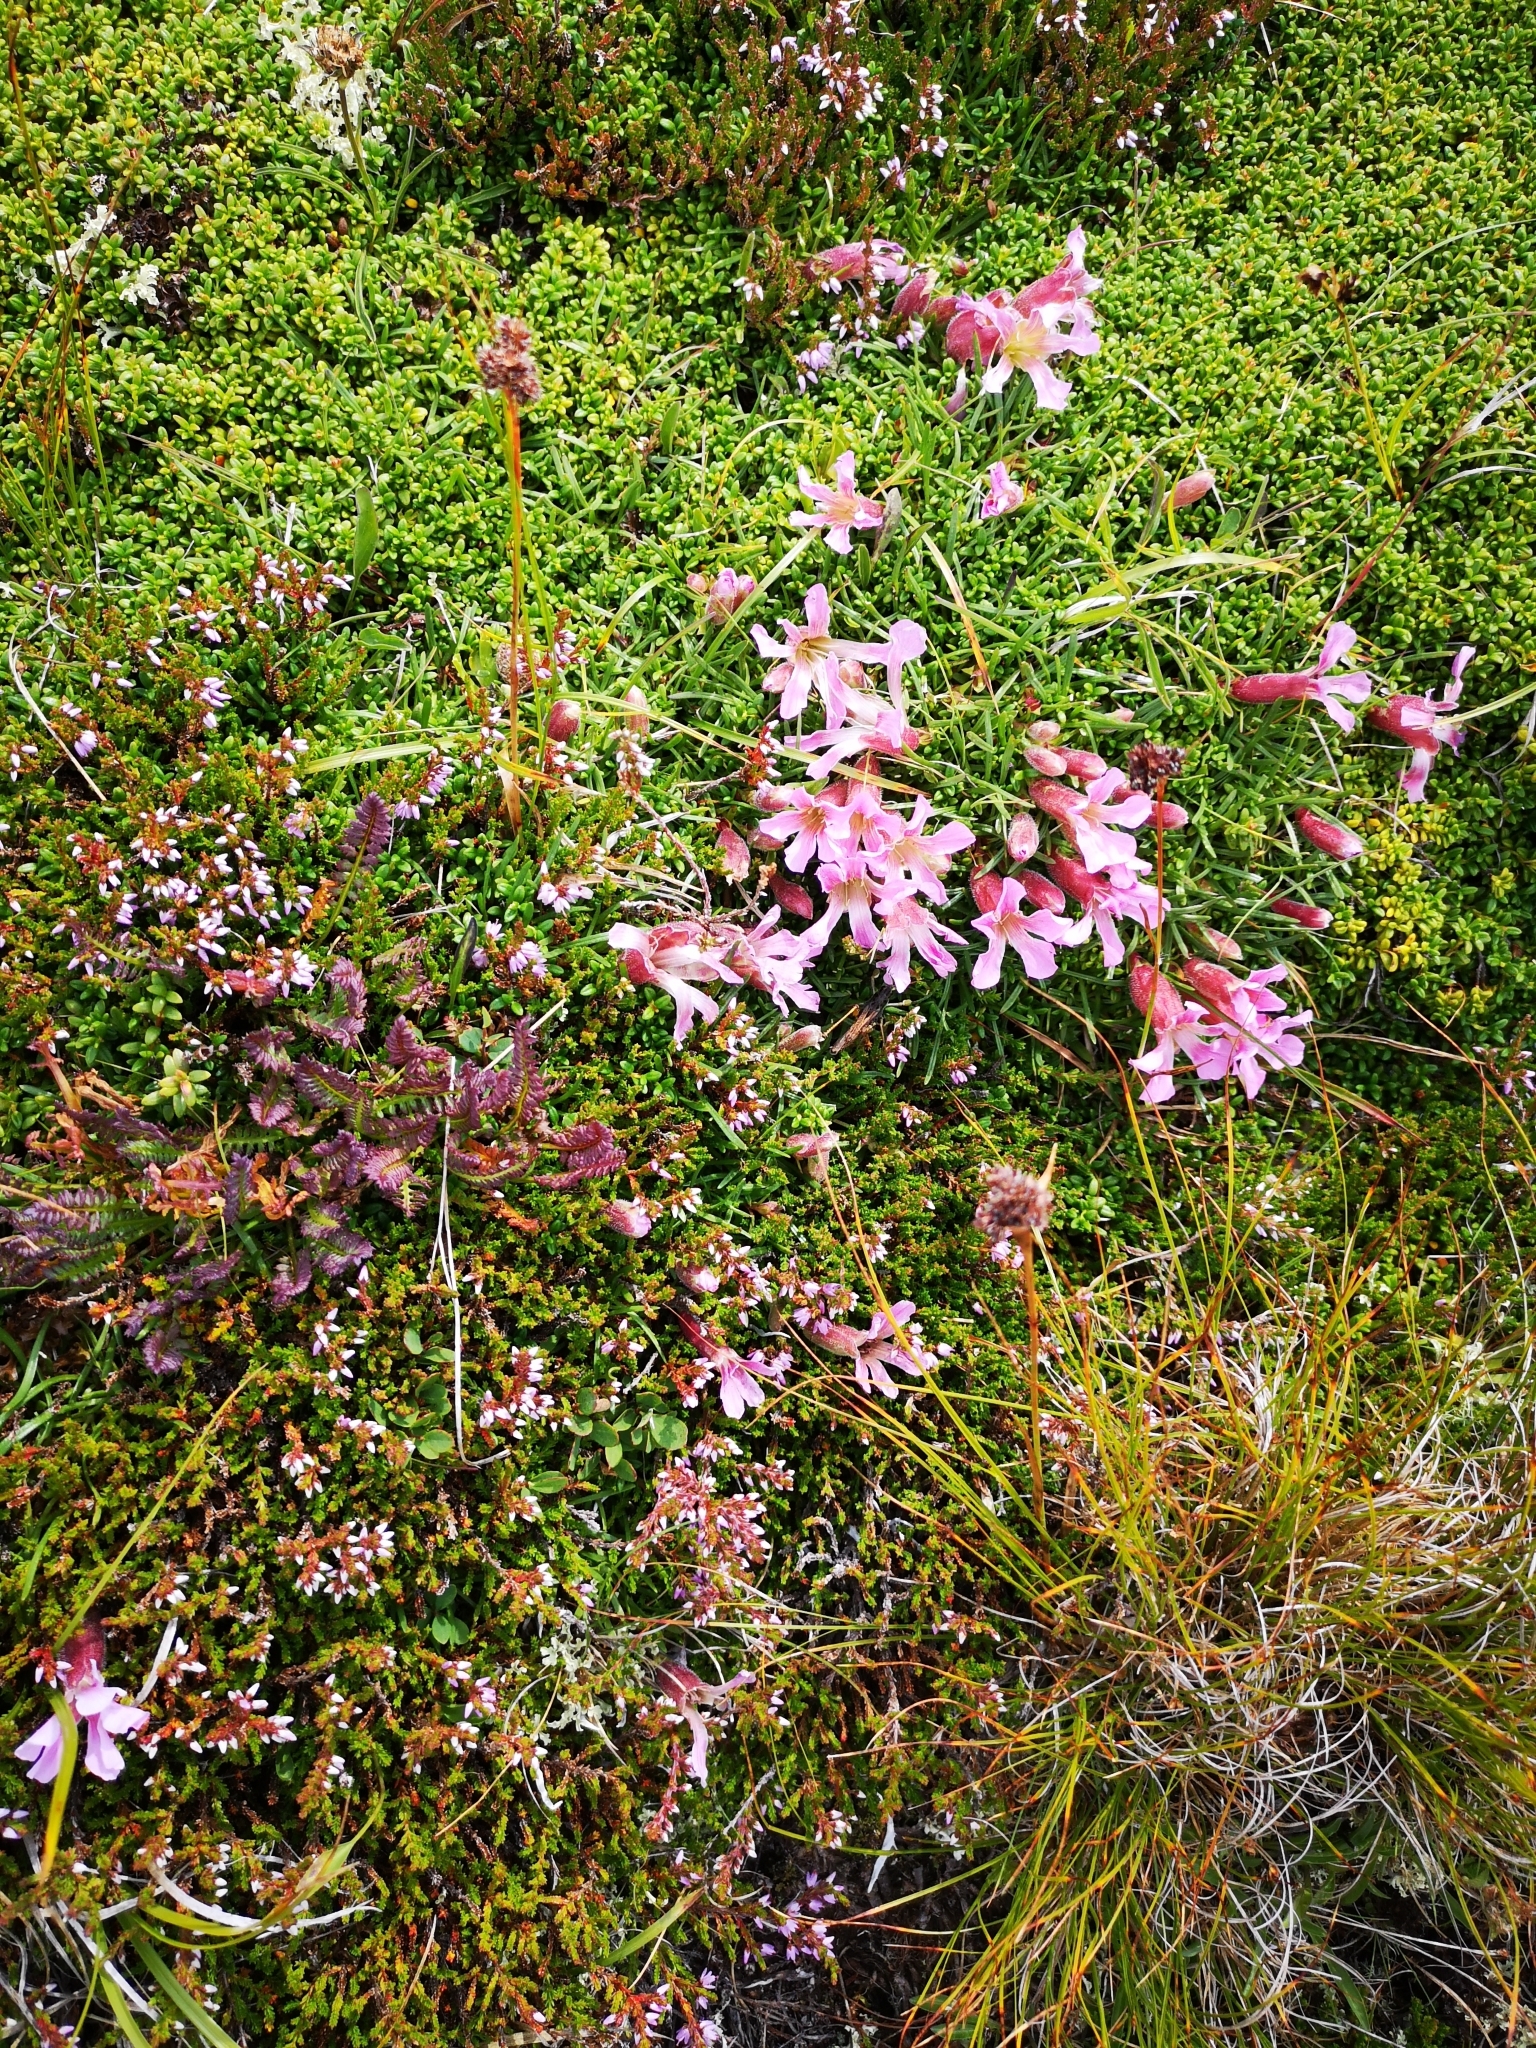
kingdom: Plantae
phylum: Tracheophyta
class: Magnoliopsida
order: Caryophyllales
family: Caryophyllaceae
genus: Saponaria
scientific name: Saponaria pumila
